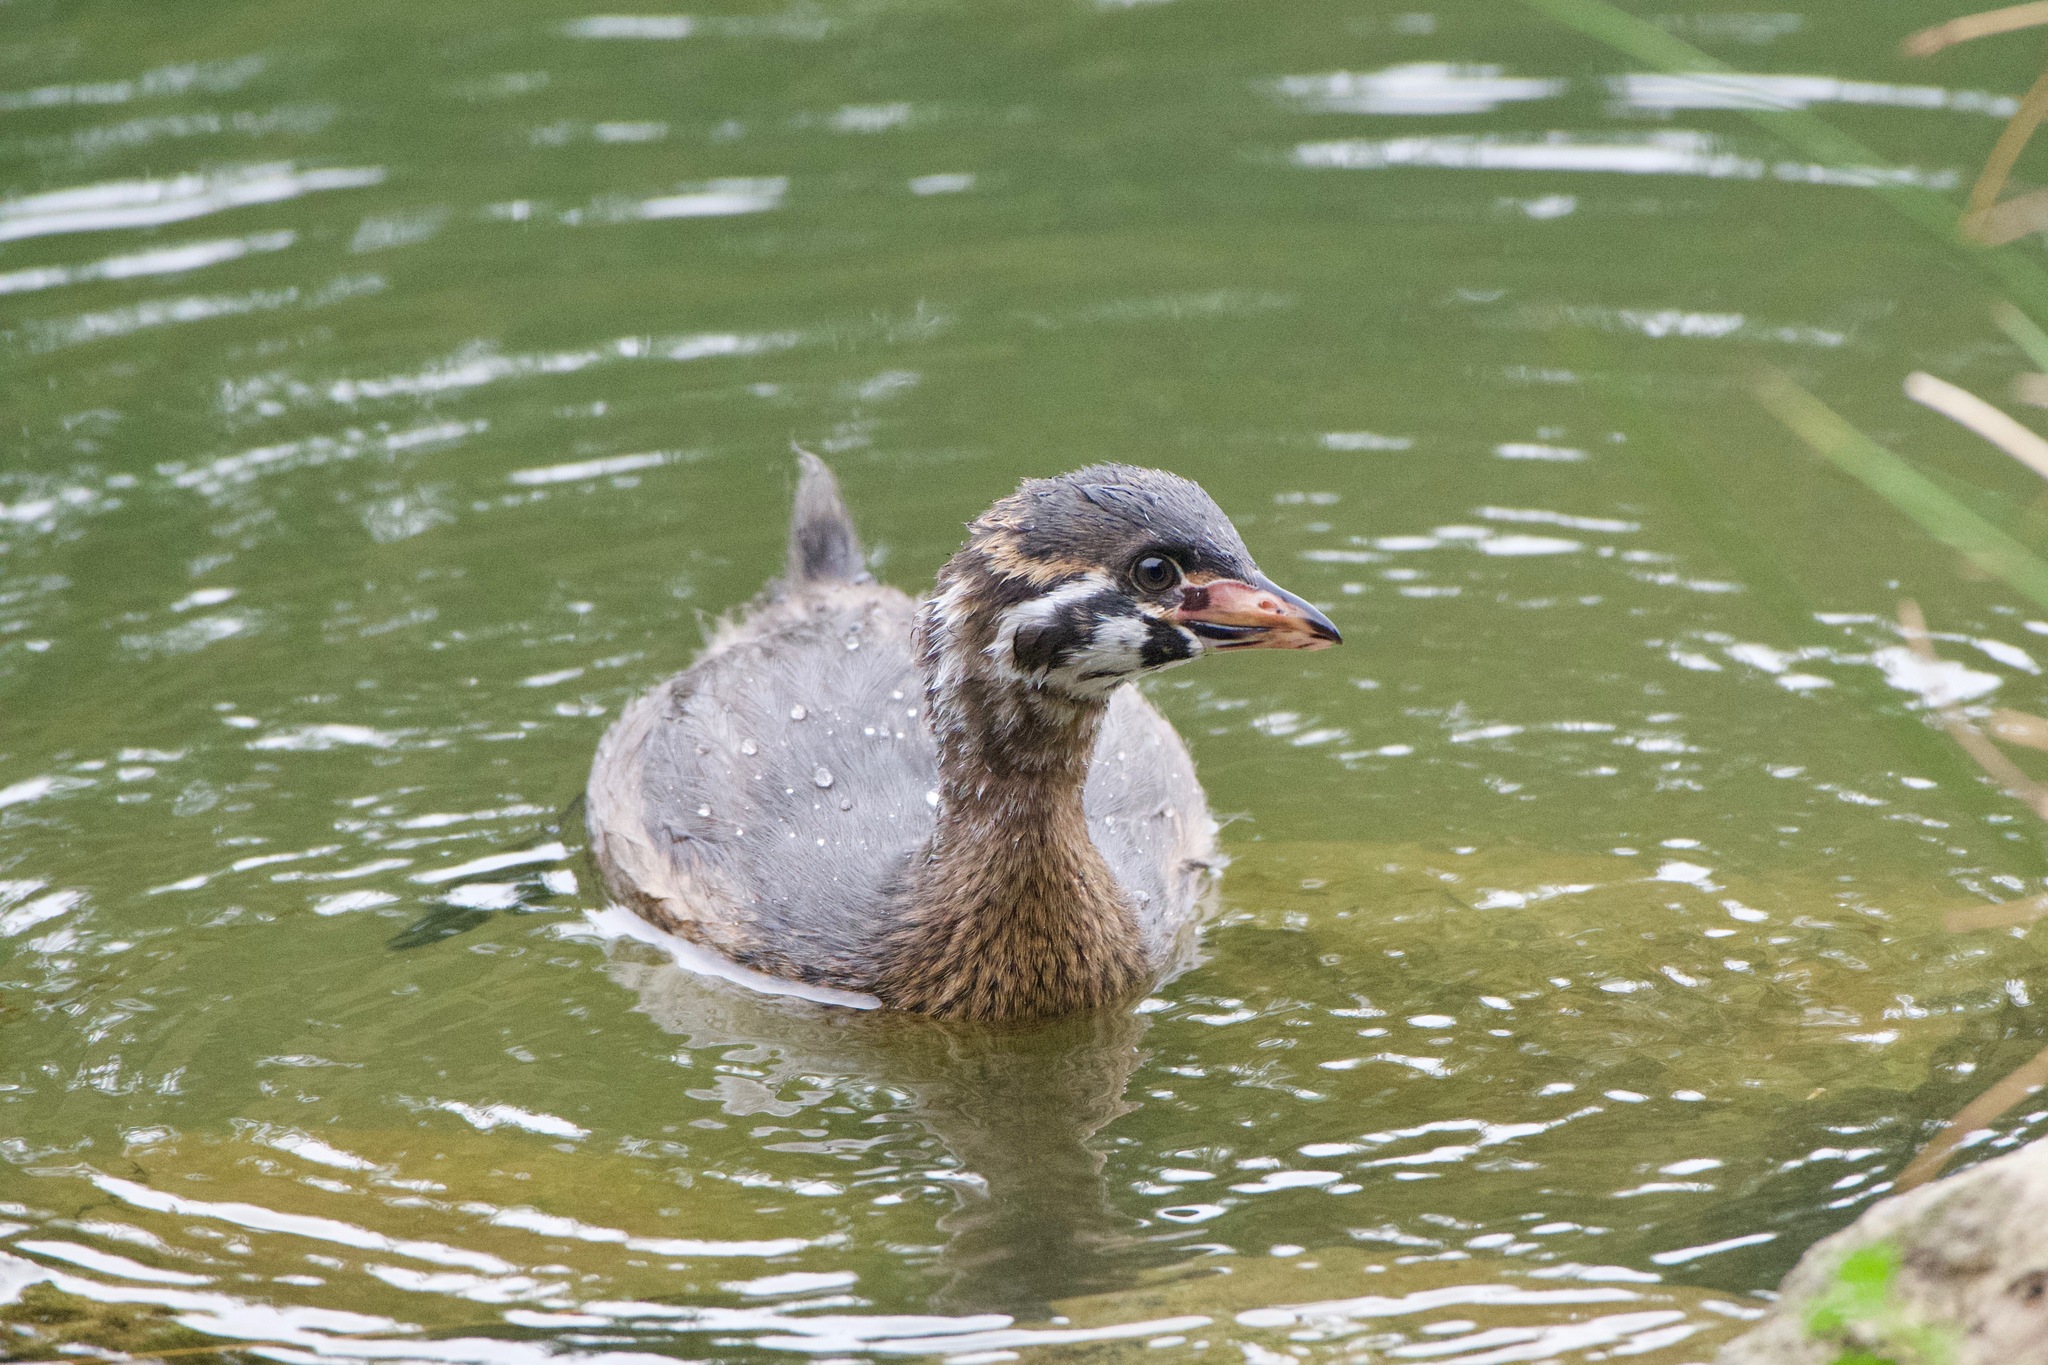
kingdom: Animalia
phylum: Chordata
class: Aves
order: Podicipediformes
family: Podicipedidae
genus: Podilymbus
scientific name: Podilymbus podiceps
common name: Pied-billed grebe
